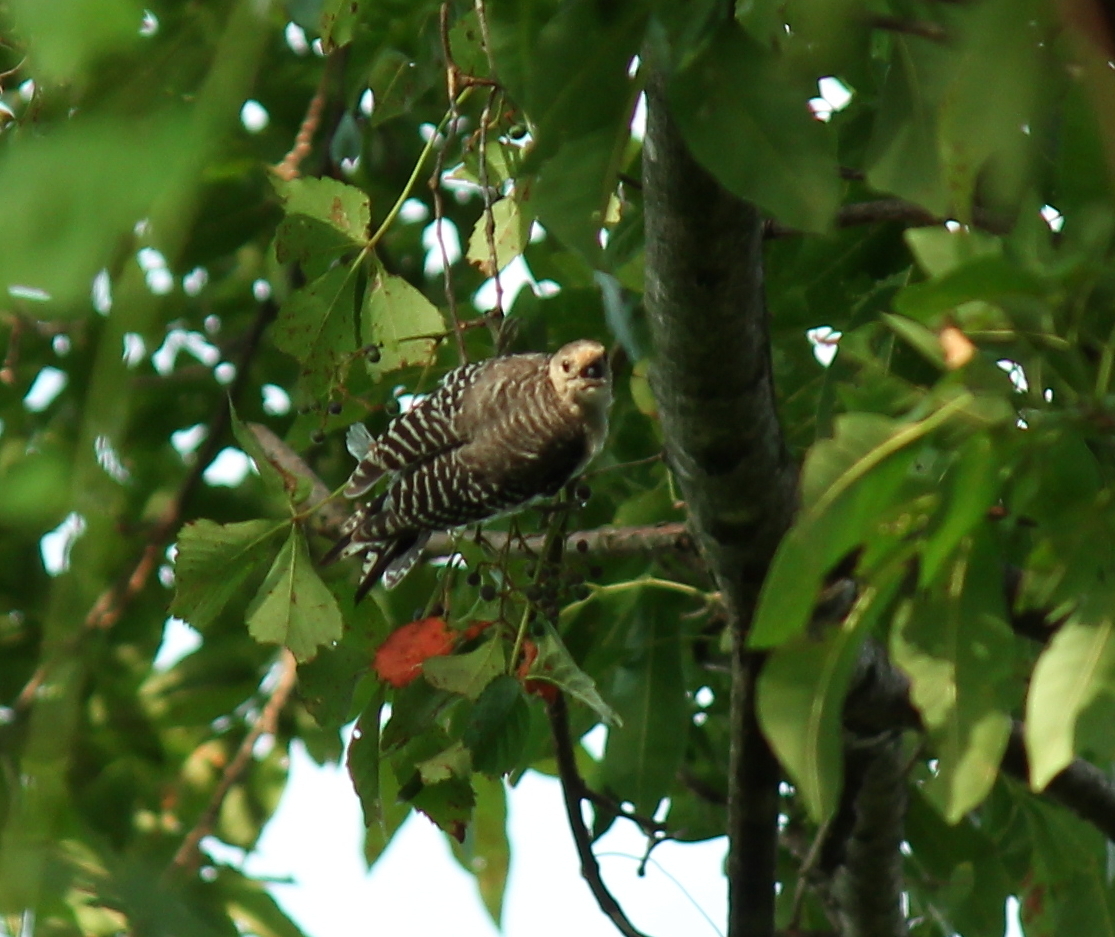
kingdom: Animalia
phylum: Chordata
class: Aves
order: Piciformes
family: Picidae
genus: Melanerpes
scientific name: Melanerpes carolinus
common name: Red-bellied woodpecker
